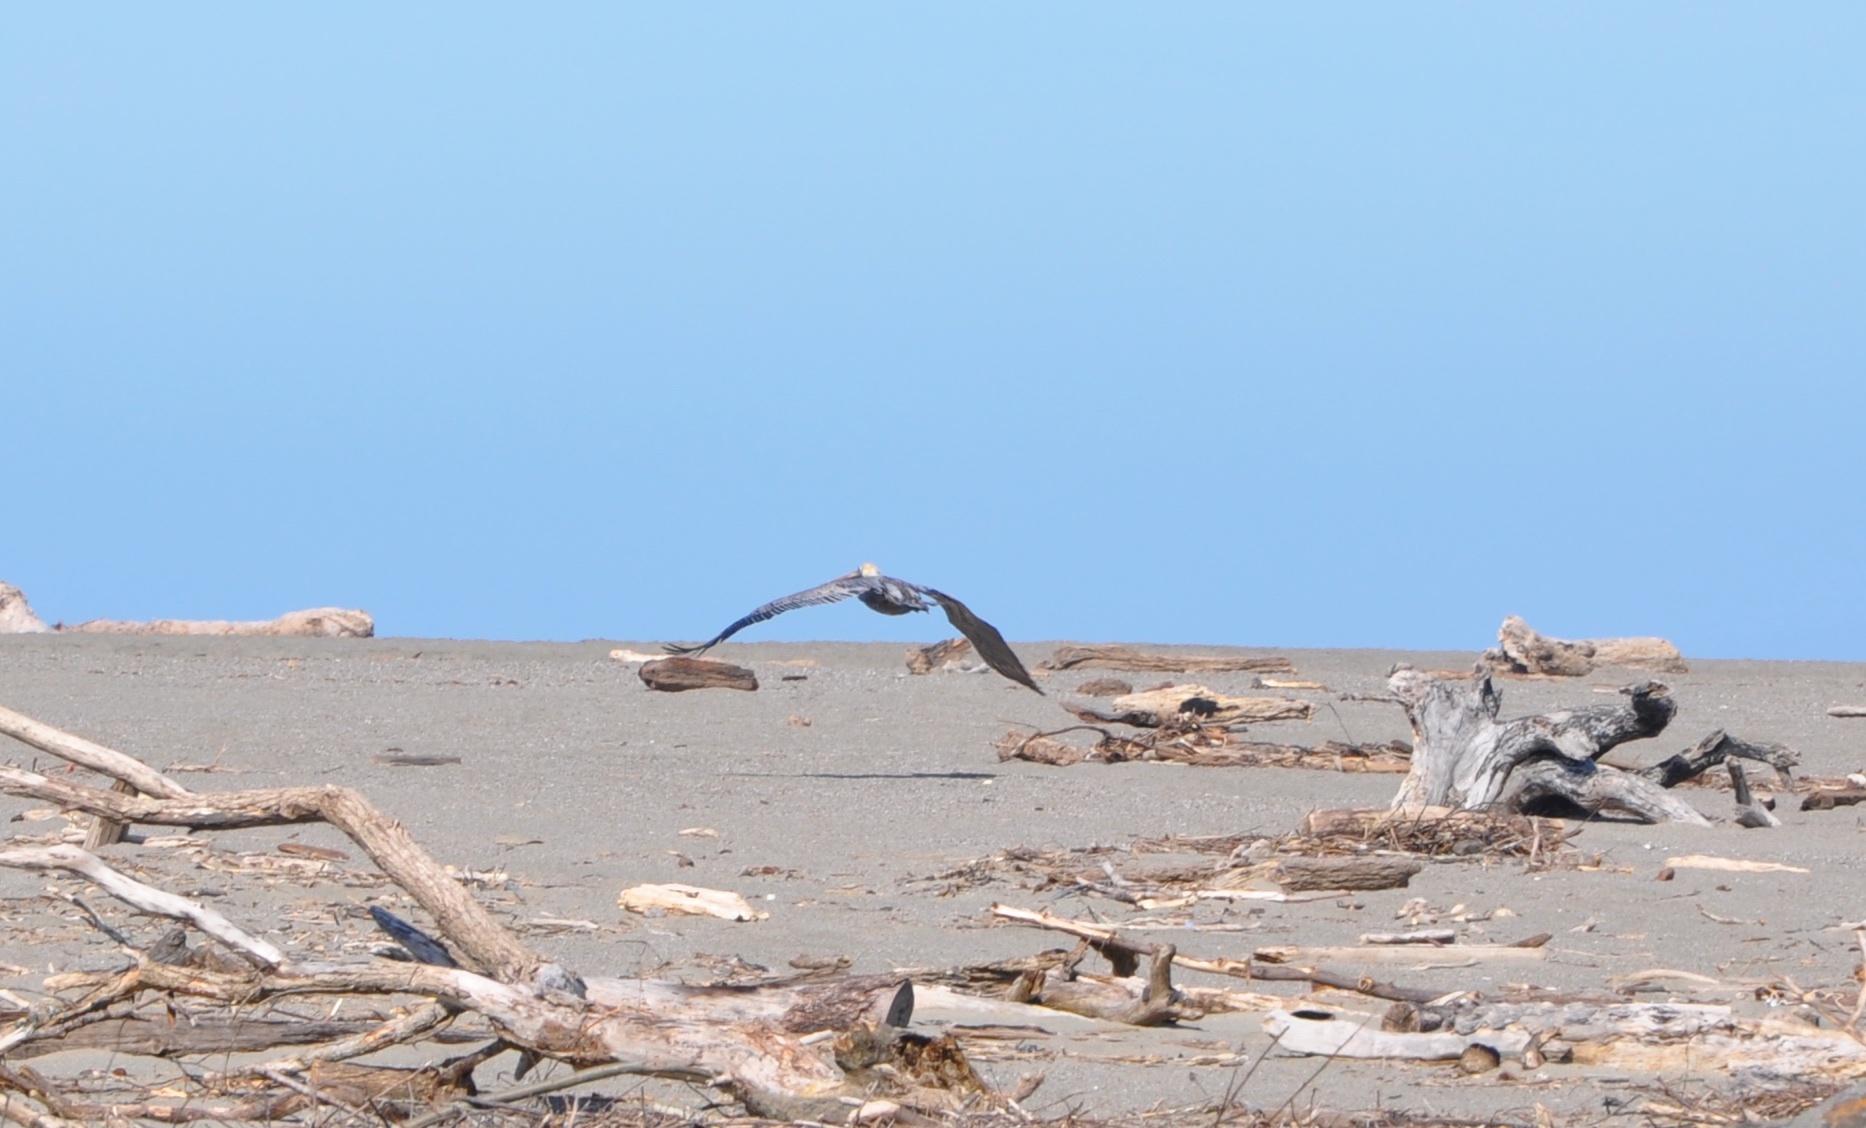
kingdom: Animalia
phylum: Chordata
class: Aves
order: Pelecaniformes
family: Pelecanidae
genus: Pelecanus
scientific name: Pelecanus occidentalis
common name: Brown pelican
